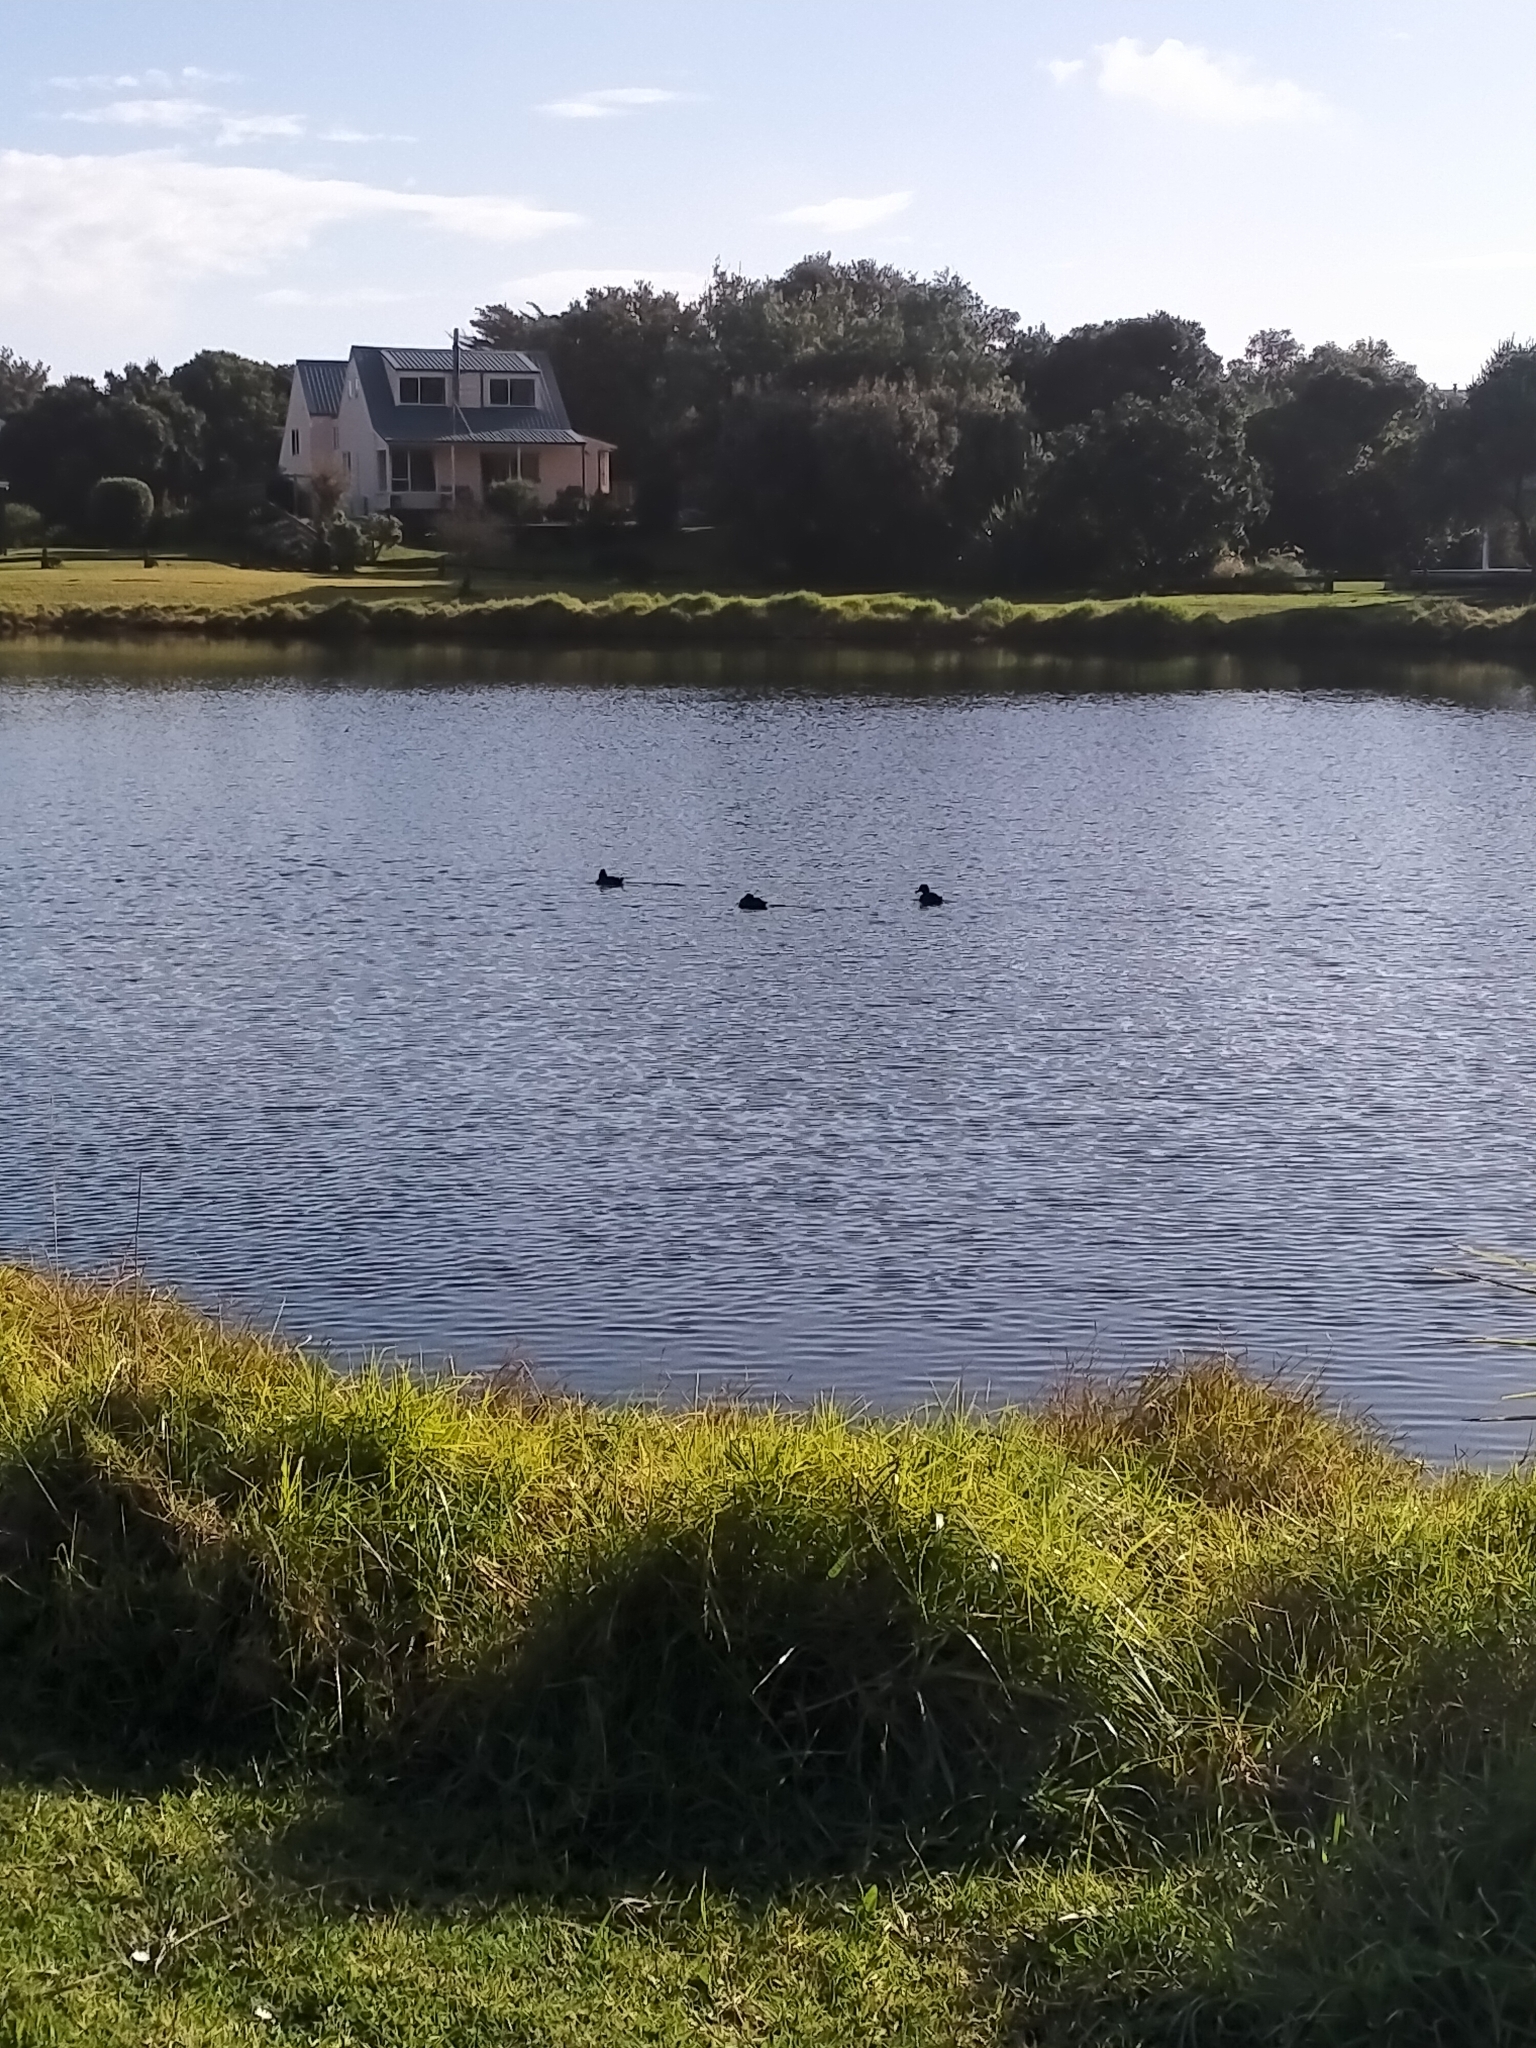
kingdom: Animalia
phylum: Chordata
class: Aves
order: Anseriformes
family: Anatidae
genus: Aythya
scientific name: Aythya novaeseelandiae
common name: New zealand scaup
